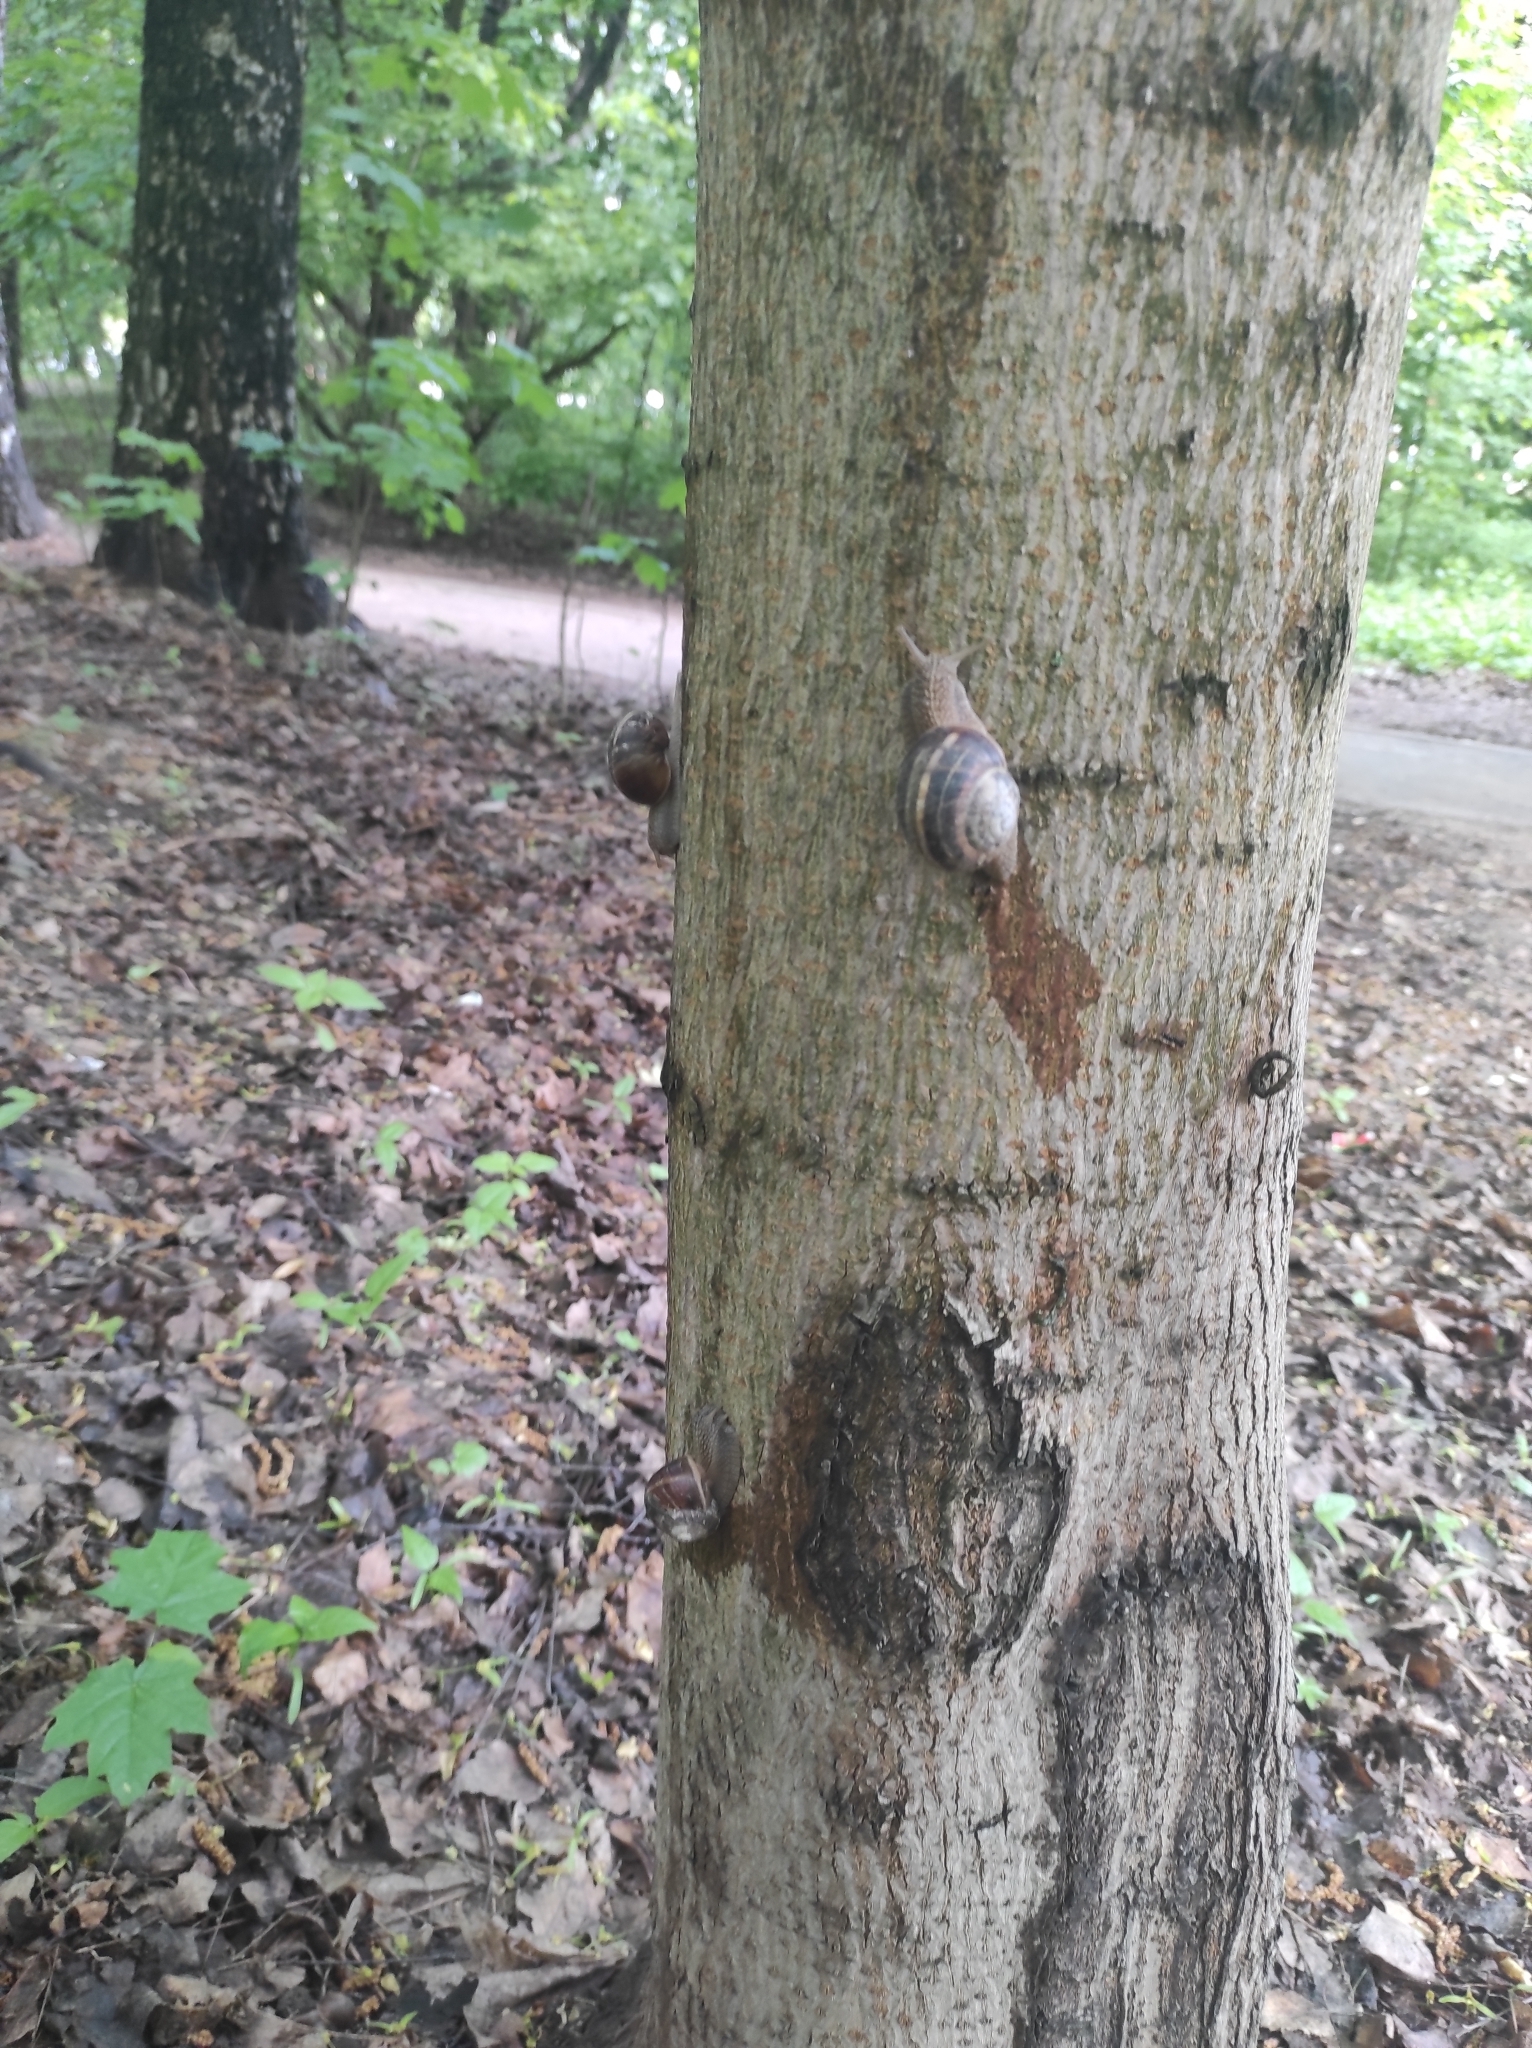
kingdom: Animalia
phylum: Mollusca
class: Gastropoda
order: Stylommatophora
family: Helicidae
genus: Helix
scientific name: Helix lucorum
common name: Turkish snail
